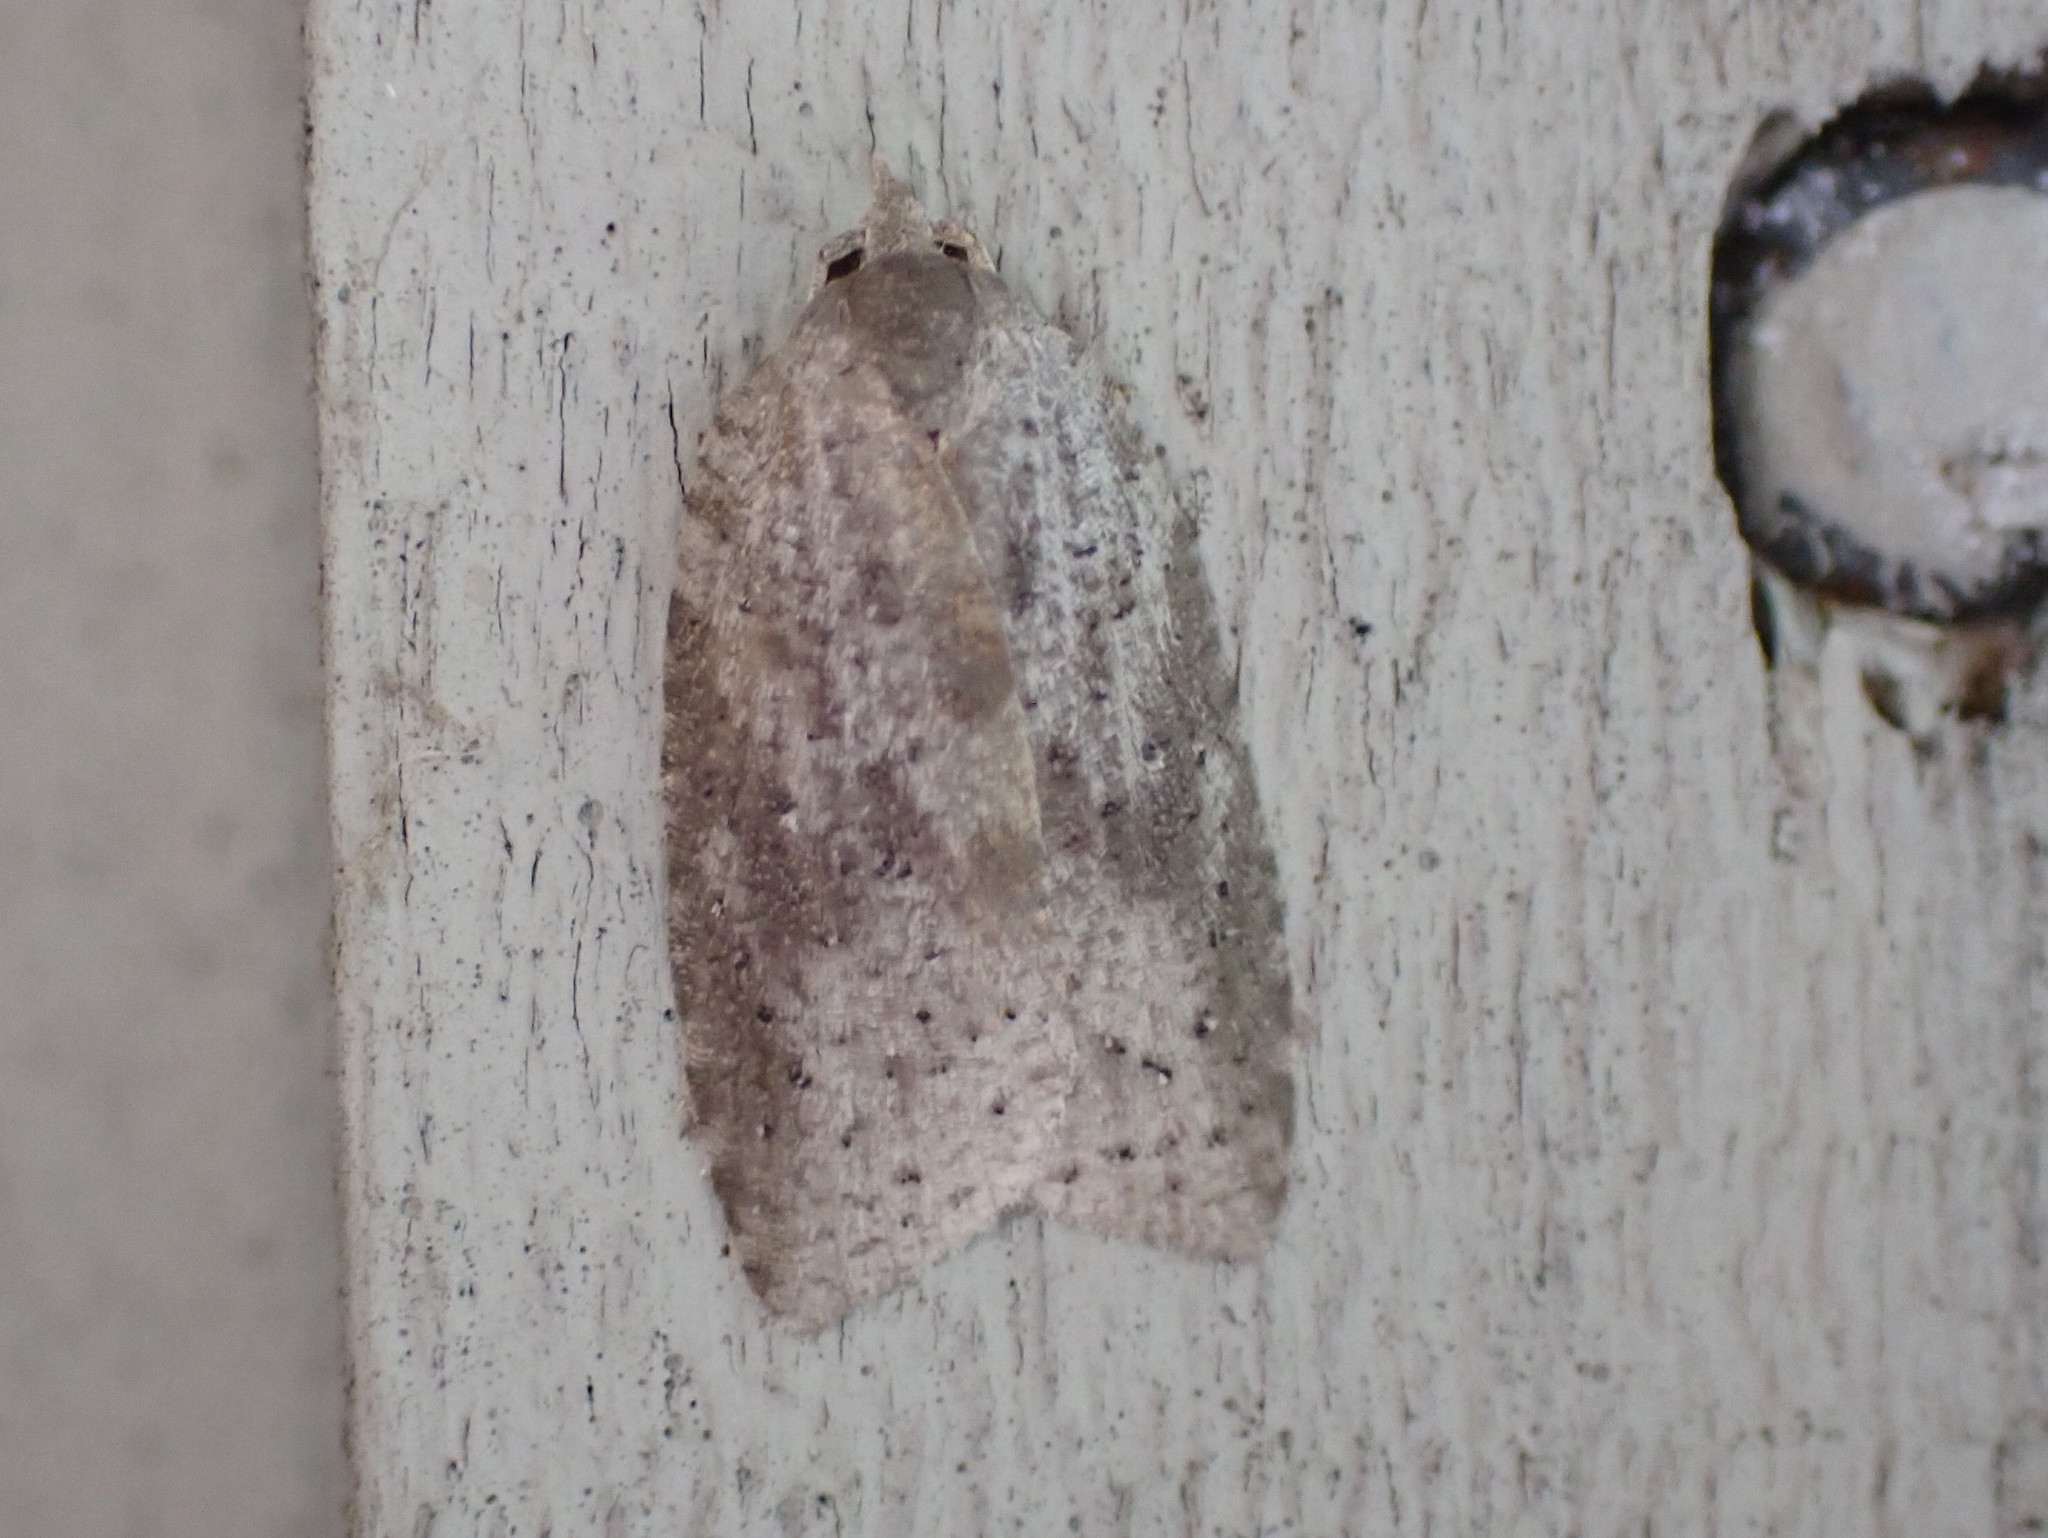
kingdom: Animalia
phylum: Arthropoda
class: Insecta
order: Lepidoptera
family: Tortricidae
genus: Amorbia
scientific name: Amorbia humerosana
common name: White-lined leafroller moth
